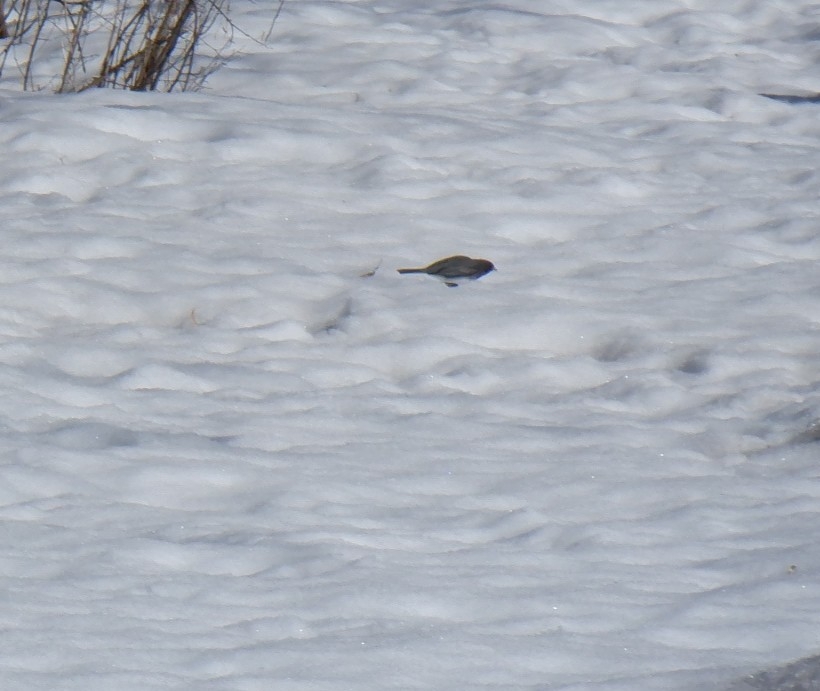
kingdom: Animalia
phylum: Chordata
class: Aves
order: Passeriformes
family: Passerellidae
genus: Junco
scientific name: Junco hyemalis
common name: Dark-eyed junco
